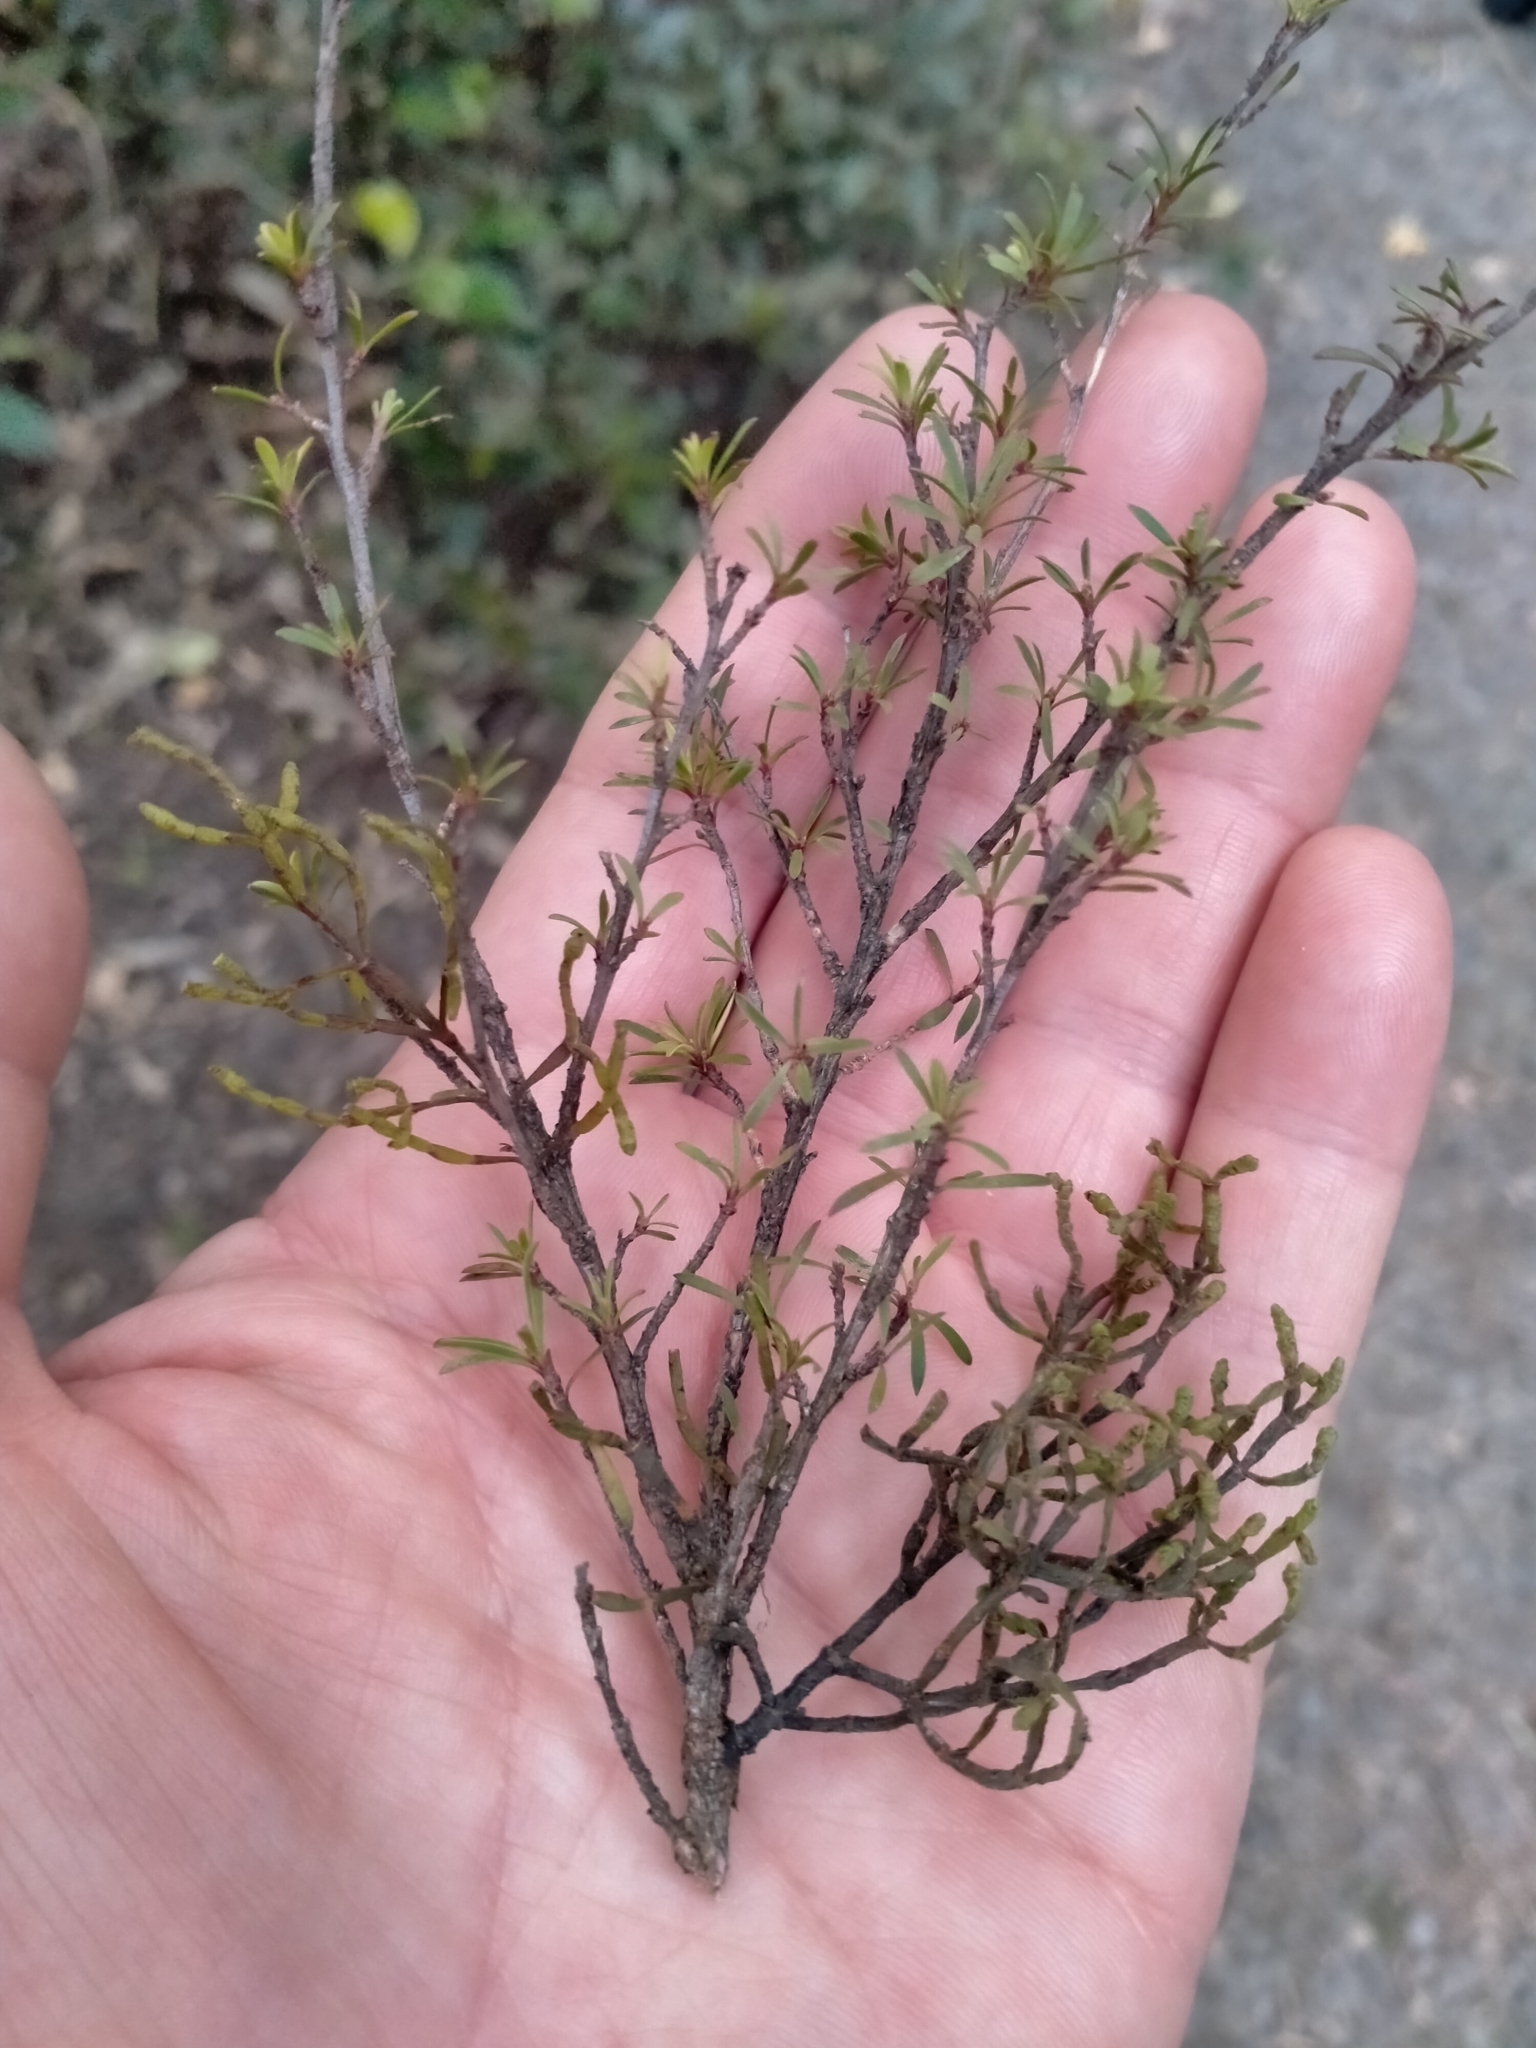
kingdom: Plantae
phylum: Tracheophyta
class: Magnoliopsida
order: Santalales
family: Viscaceae
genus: Korthalsella
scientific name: Korthalsella salicornioides
